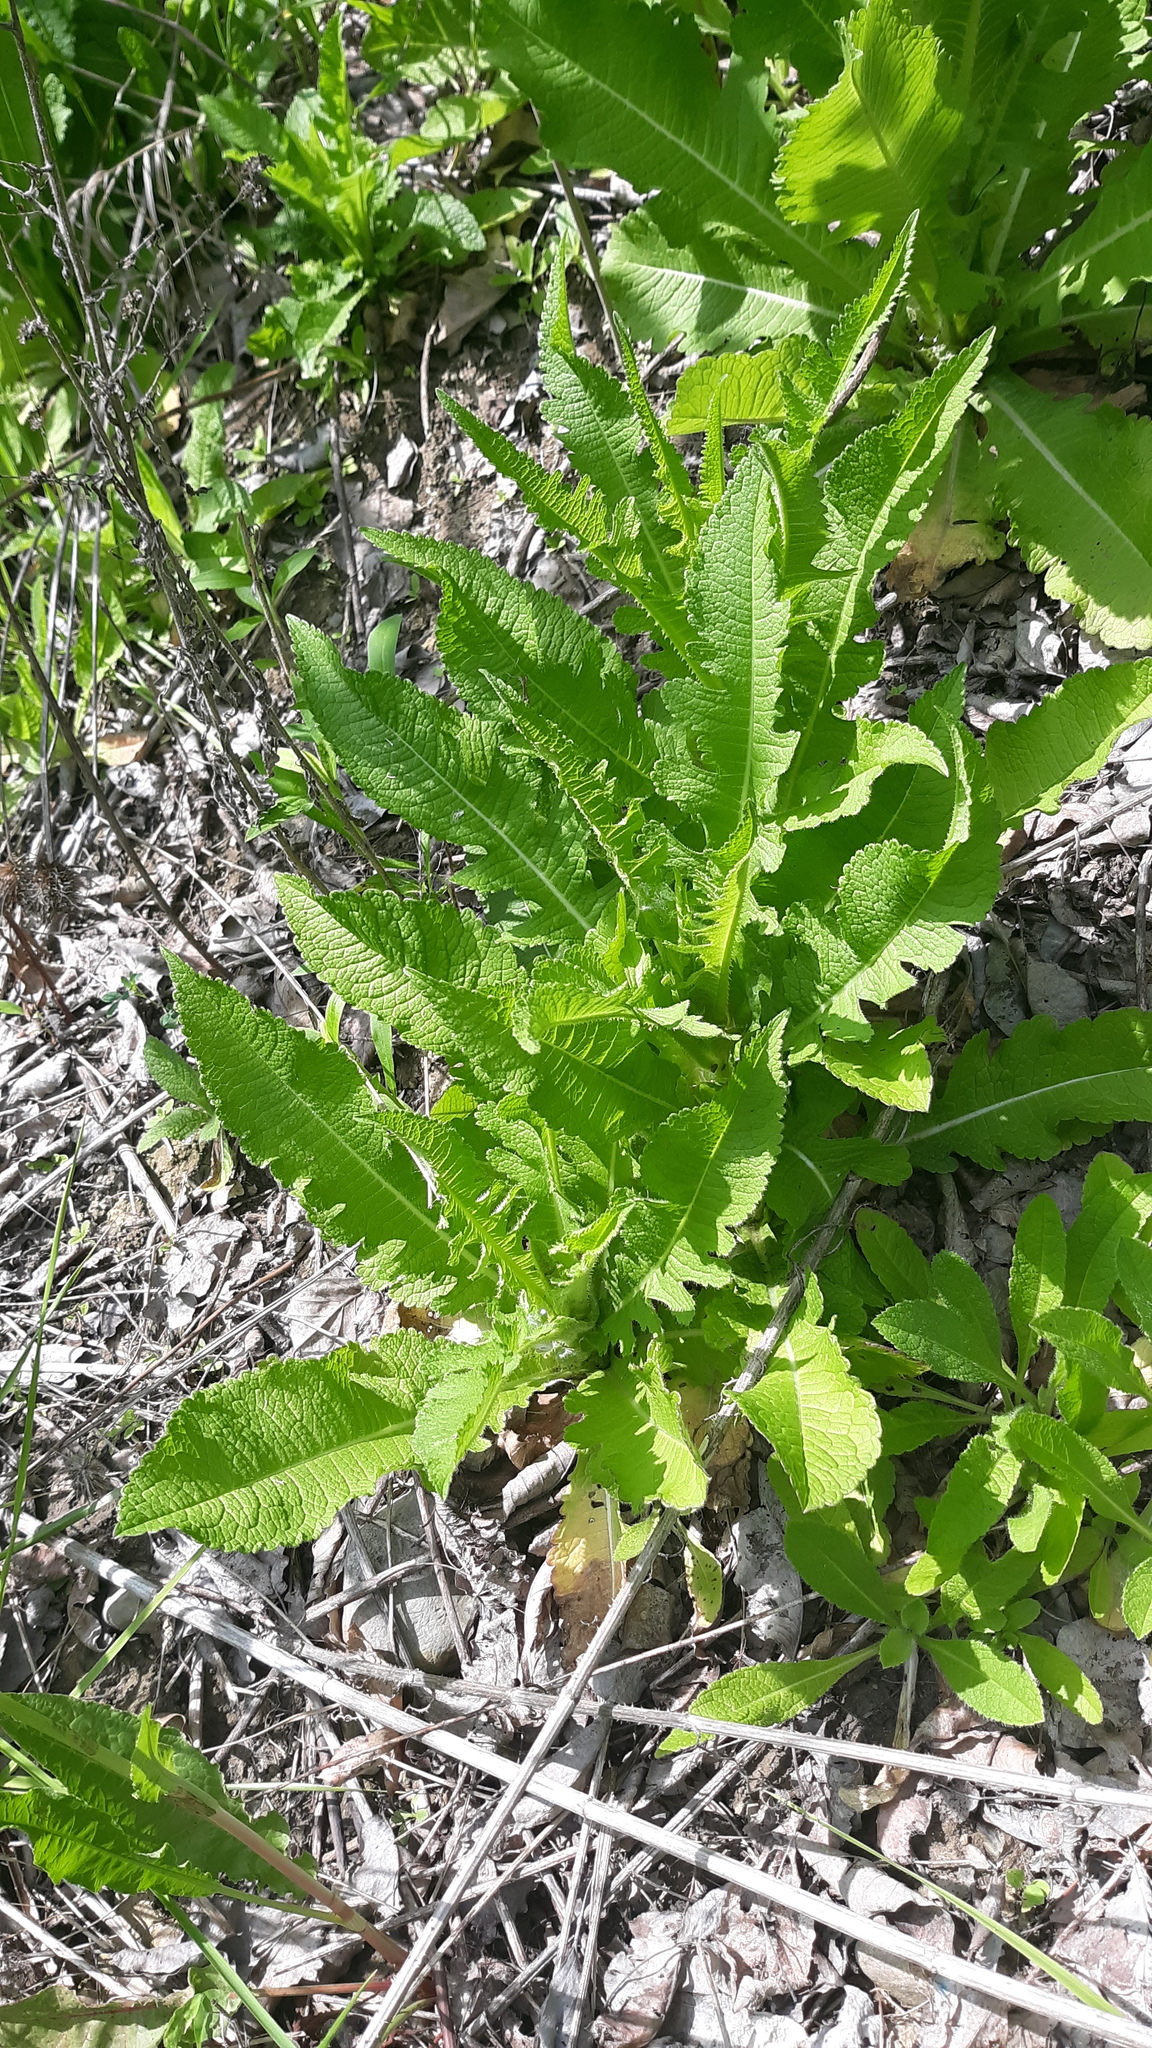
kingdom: Plantae
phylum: Tracheophyta
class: Magnoliopsida
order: Dipsacales
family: Caprifoliaceae
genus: Dipsacus
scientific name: Dipsacus laciniatus
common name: Cut-leaved teasel
